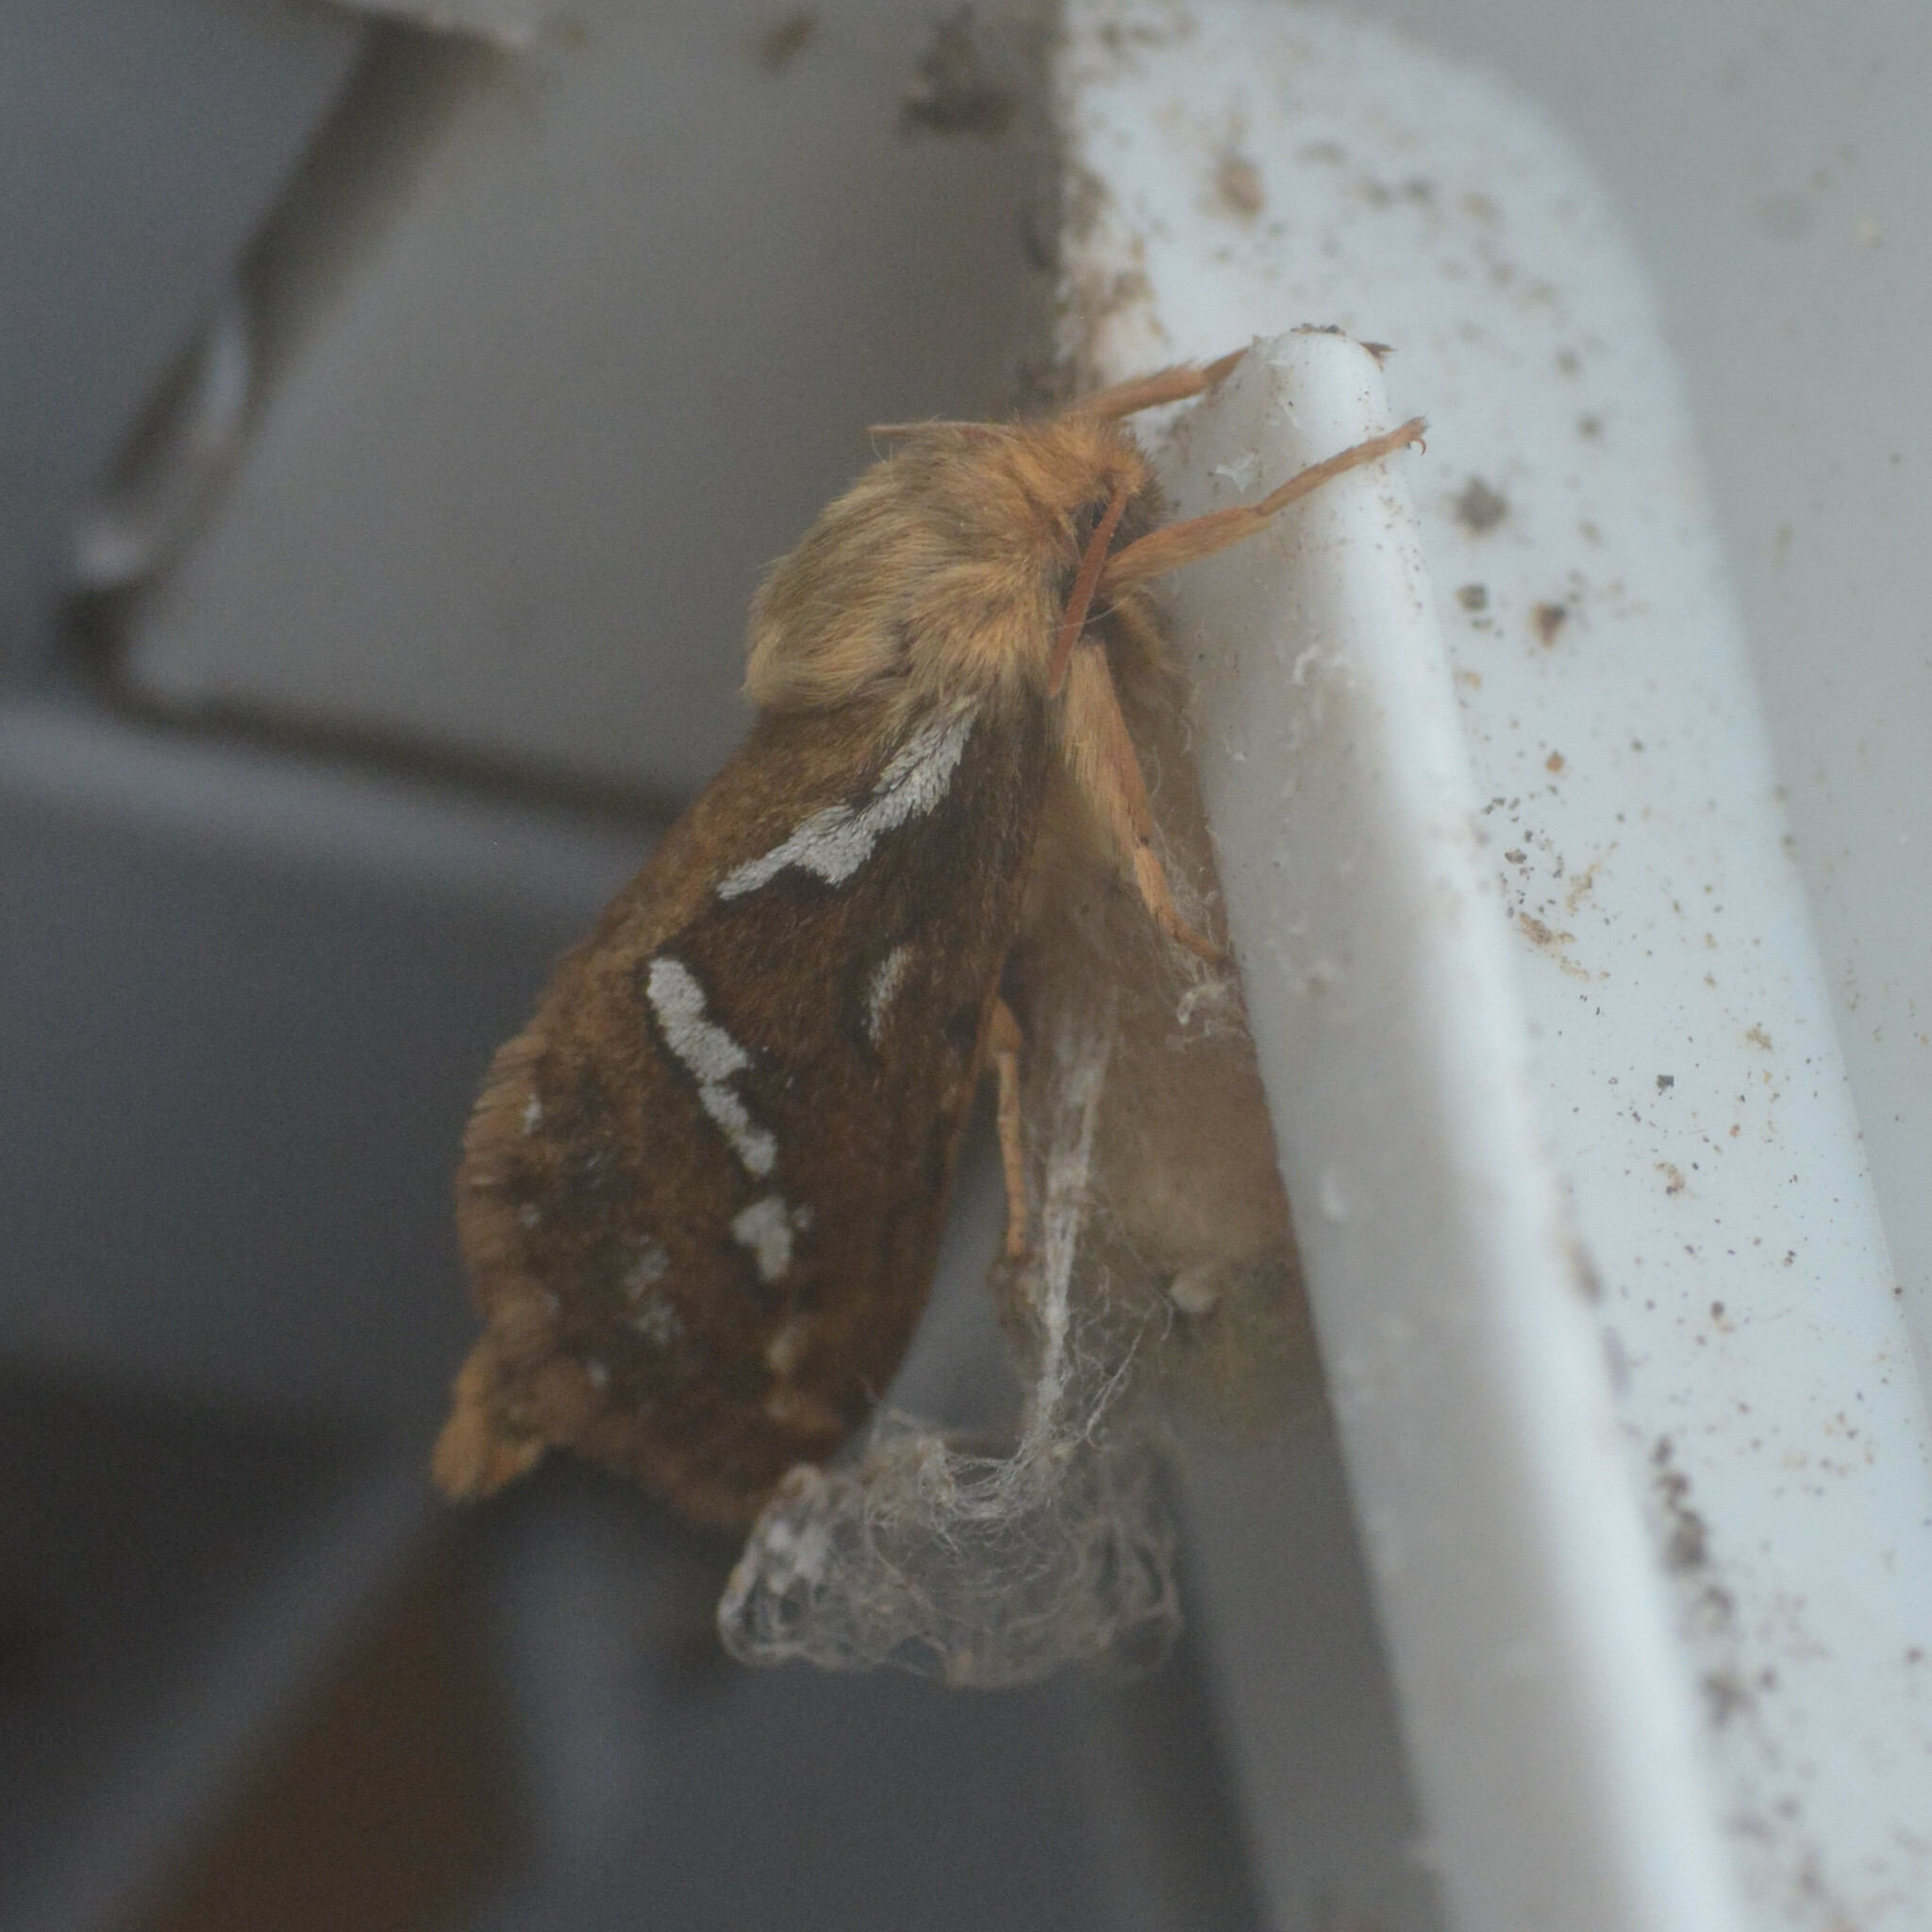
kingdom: Animalia
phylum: Arthropoda
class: Insecta
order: Lepidoptera
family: Hepialidae
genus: Korscheltellus
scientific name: Korscheltellus lupulina
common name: Common swift
